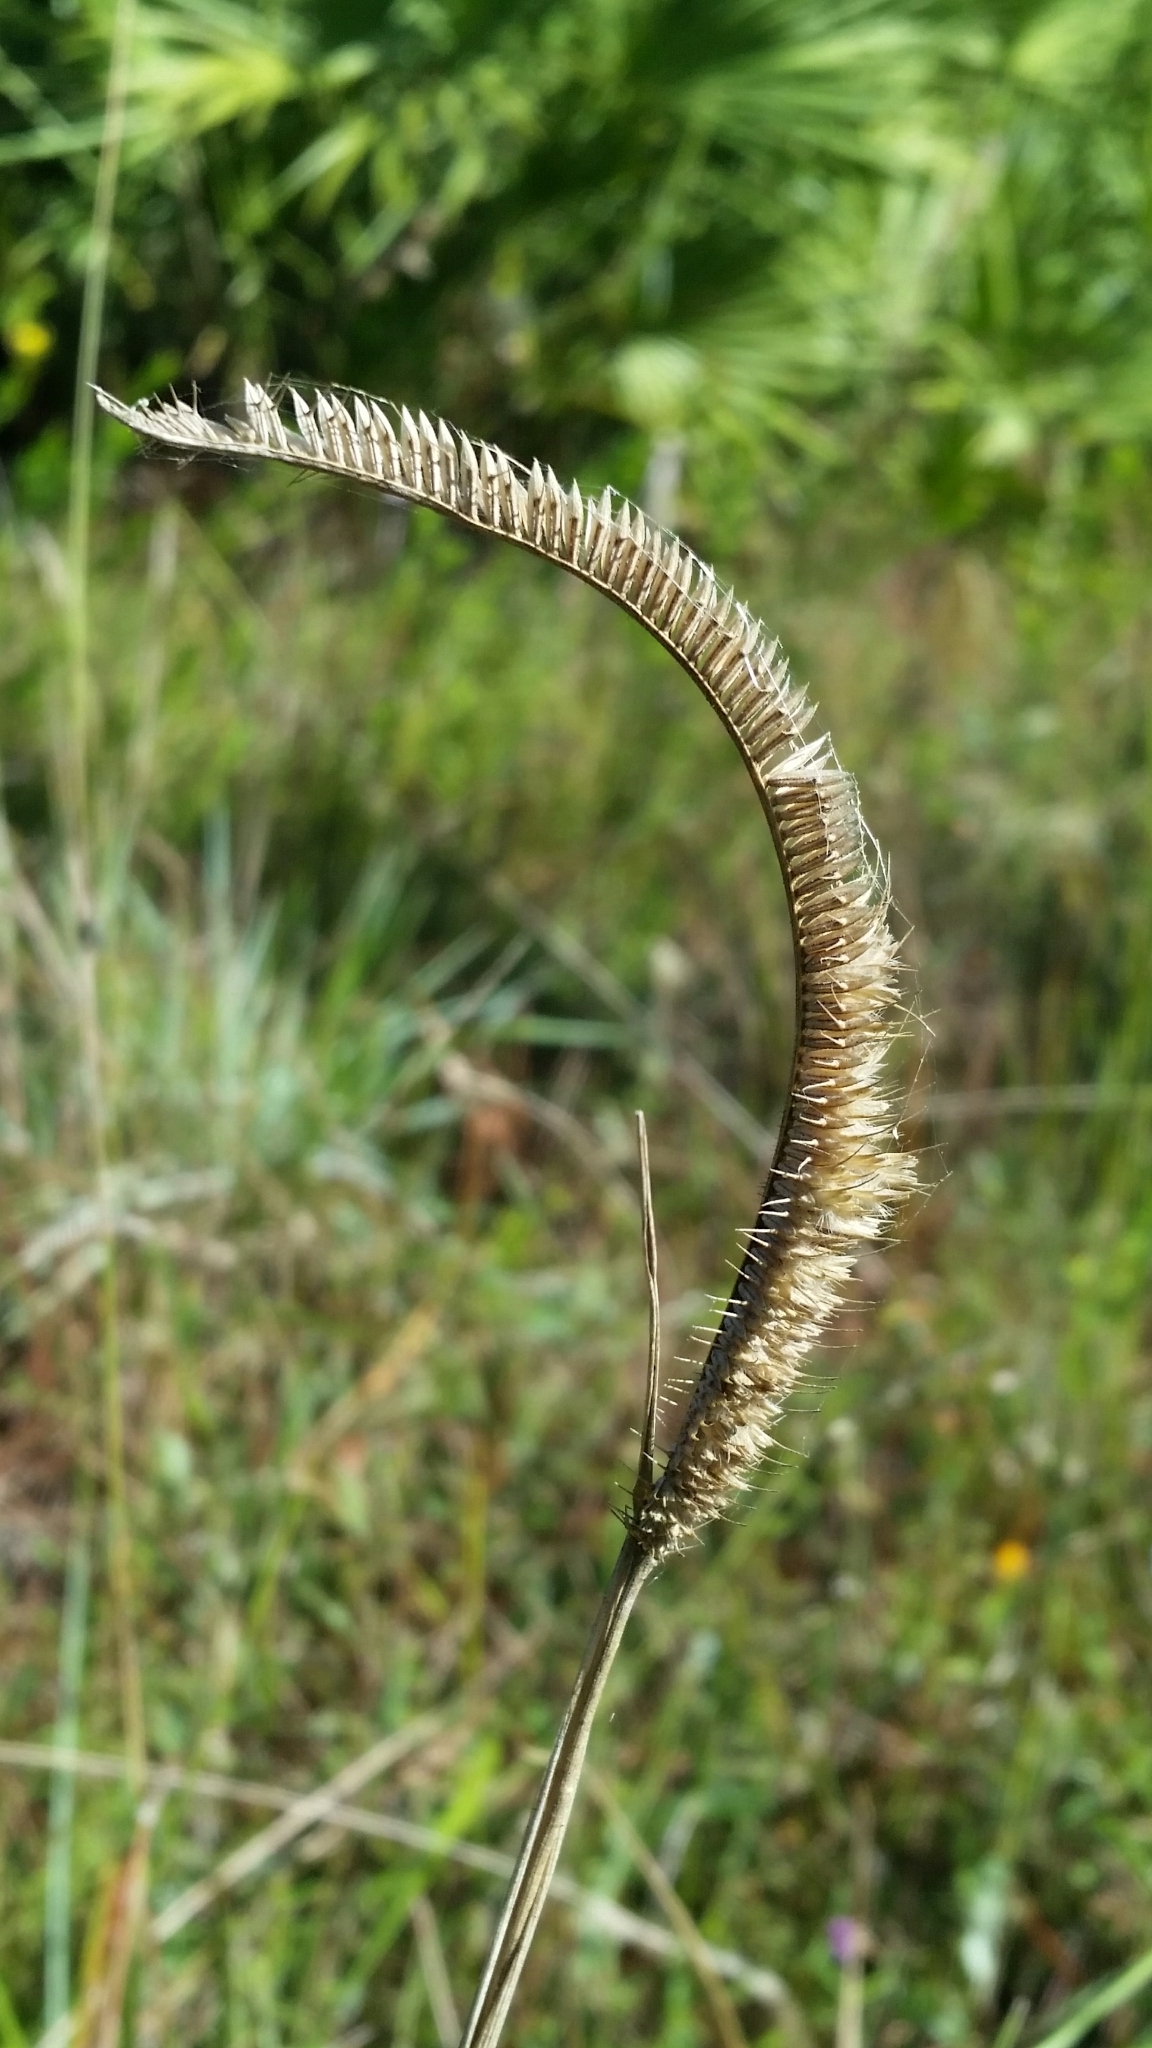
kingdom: Plantae
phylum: Tracheophyta
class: Liliopsida
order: Poales
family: Poaceae
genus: Ctenium
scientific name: Ctenium aromaticum
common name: Toothache grass
